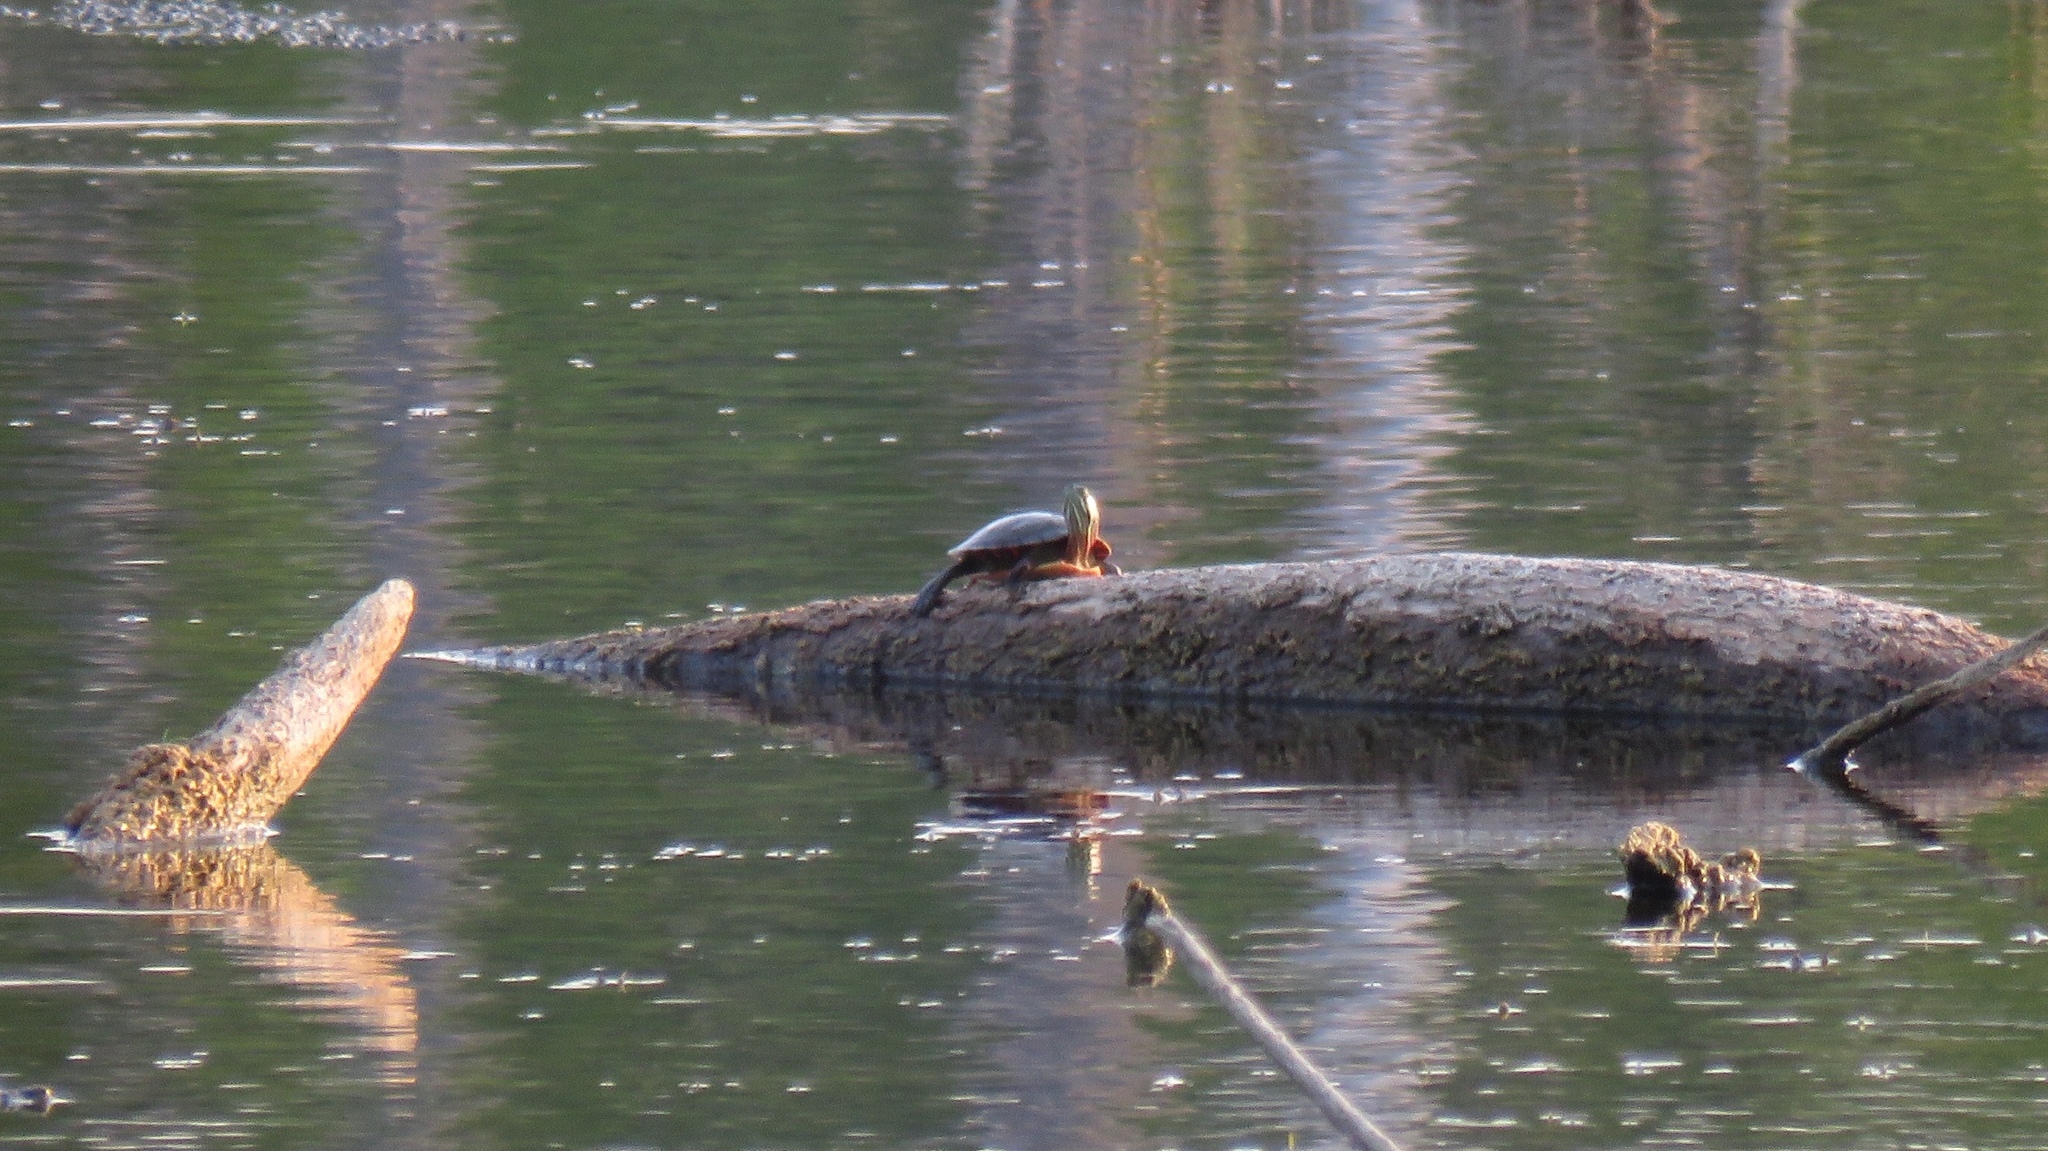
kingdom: Animalia
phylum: Chordata
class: Testudines
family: Emydidae
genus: Chrysemys
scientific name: Chrysemys picta
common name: Painted turtle
